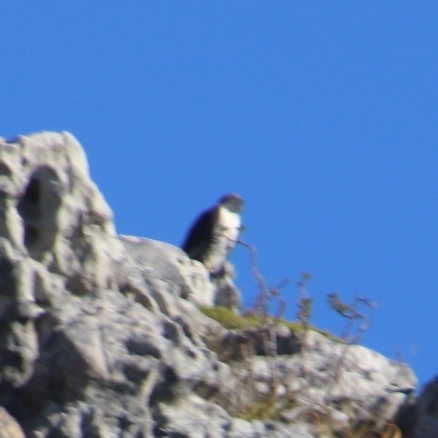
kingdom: Animalia
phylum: Chordata
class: Aves
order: Accipitriformes
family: Accipitridae
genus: Buteo
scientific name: Buteo rufofuscus
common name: Jackal buzzard
